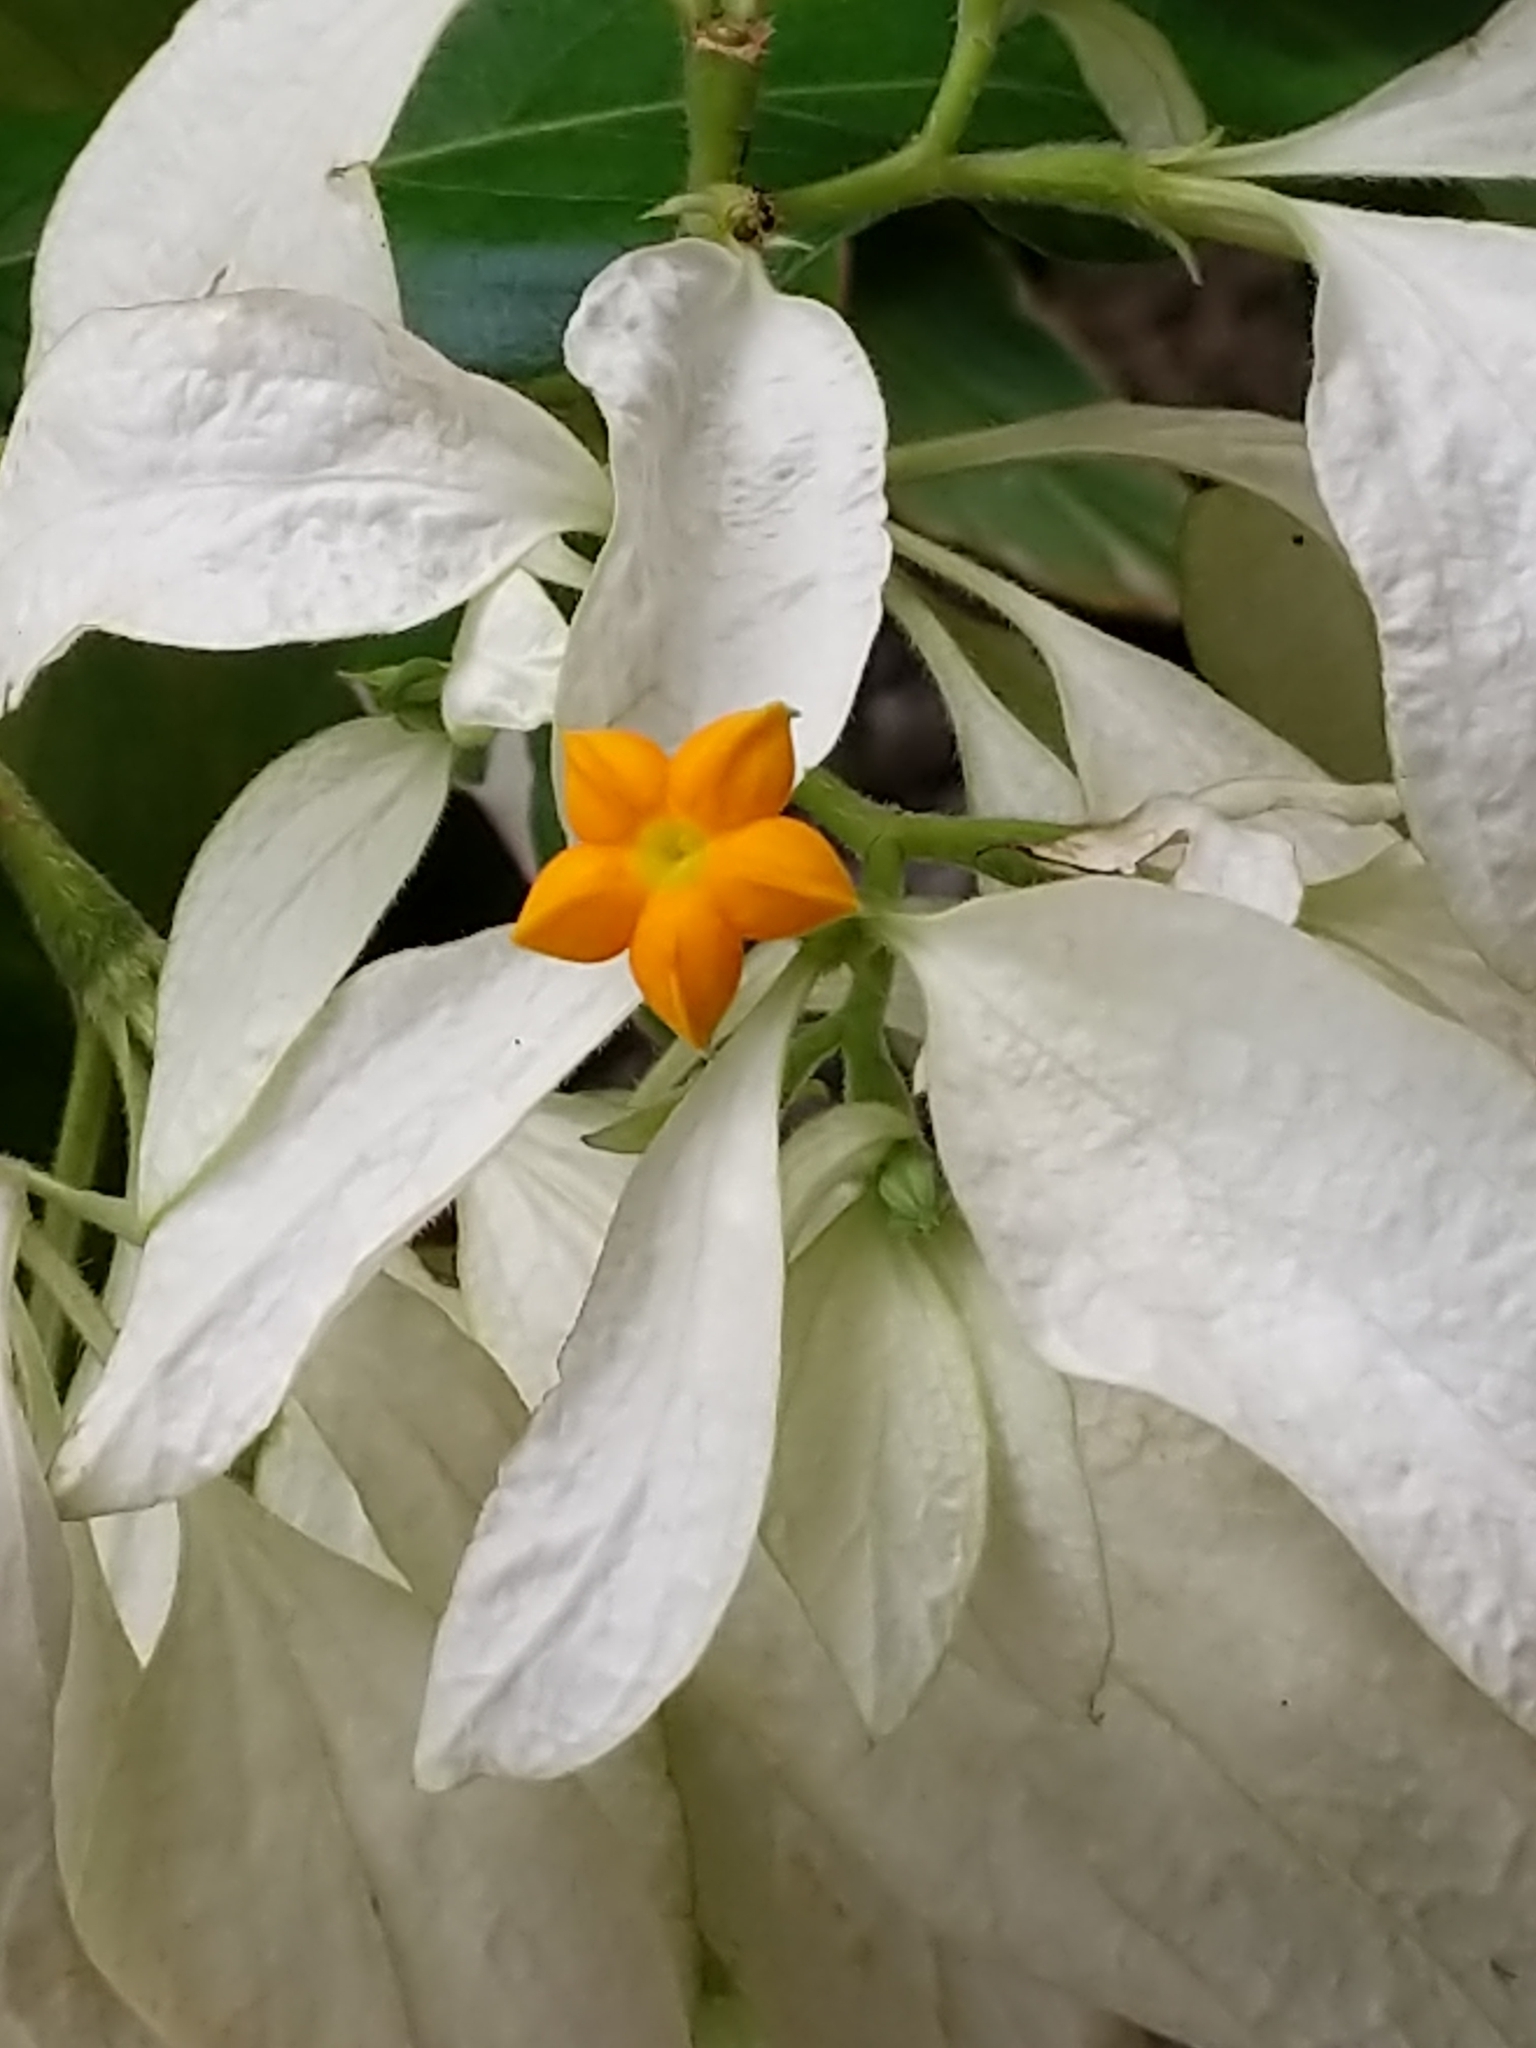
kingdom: Plantae
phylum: Tracheophyta
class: Magnoliopsida
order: Gentianales
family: Rubiaceae
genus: Mussaenda
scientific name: Mussaenda philippica
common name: Philippine mussaenda
